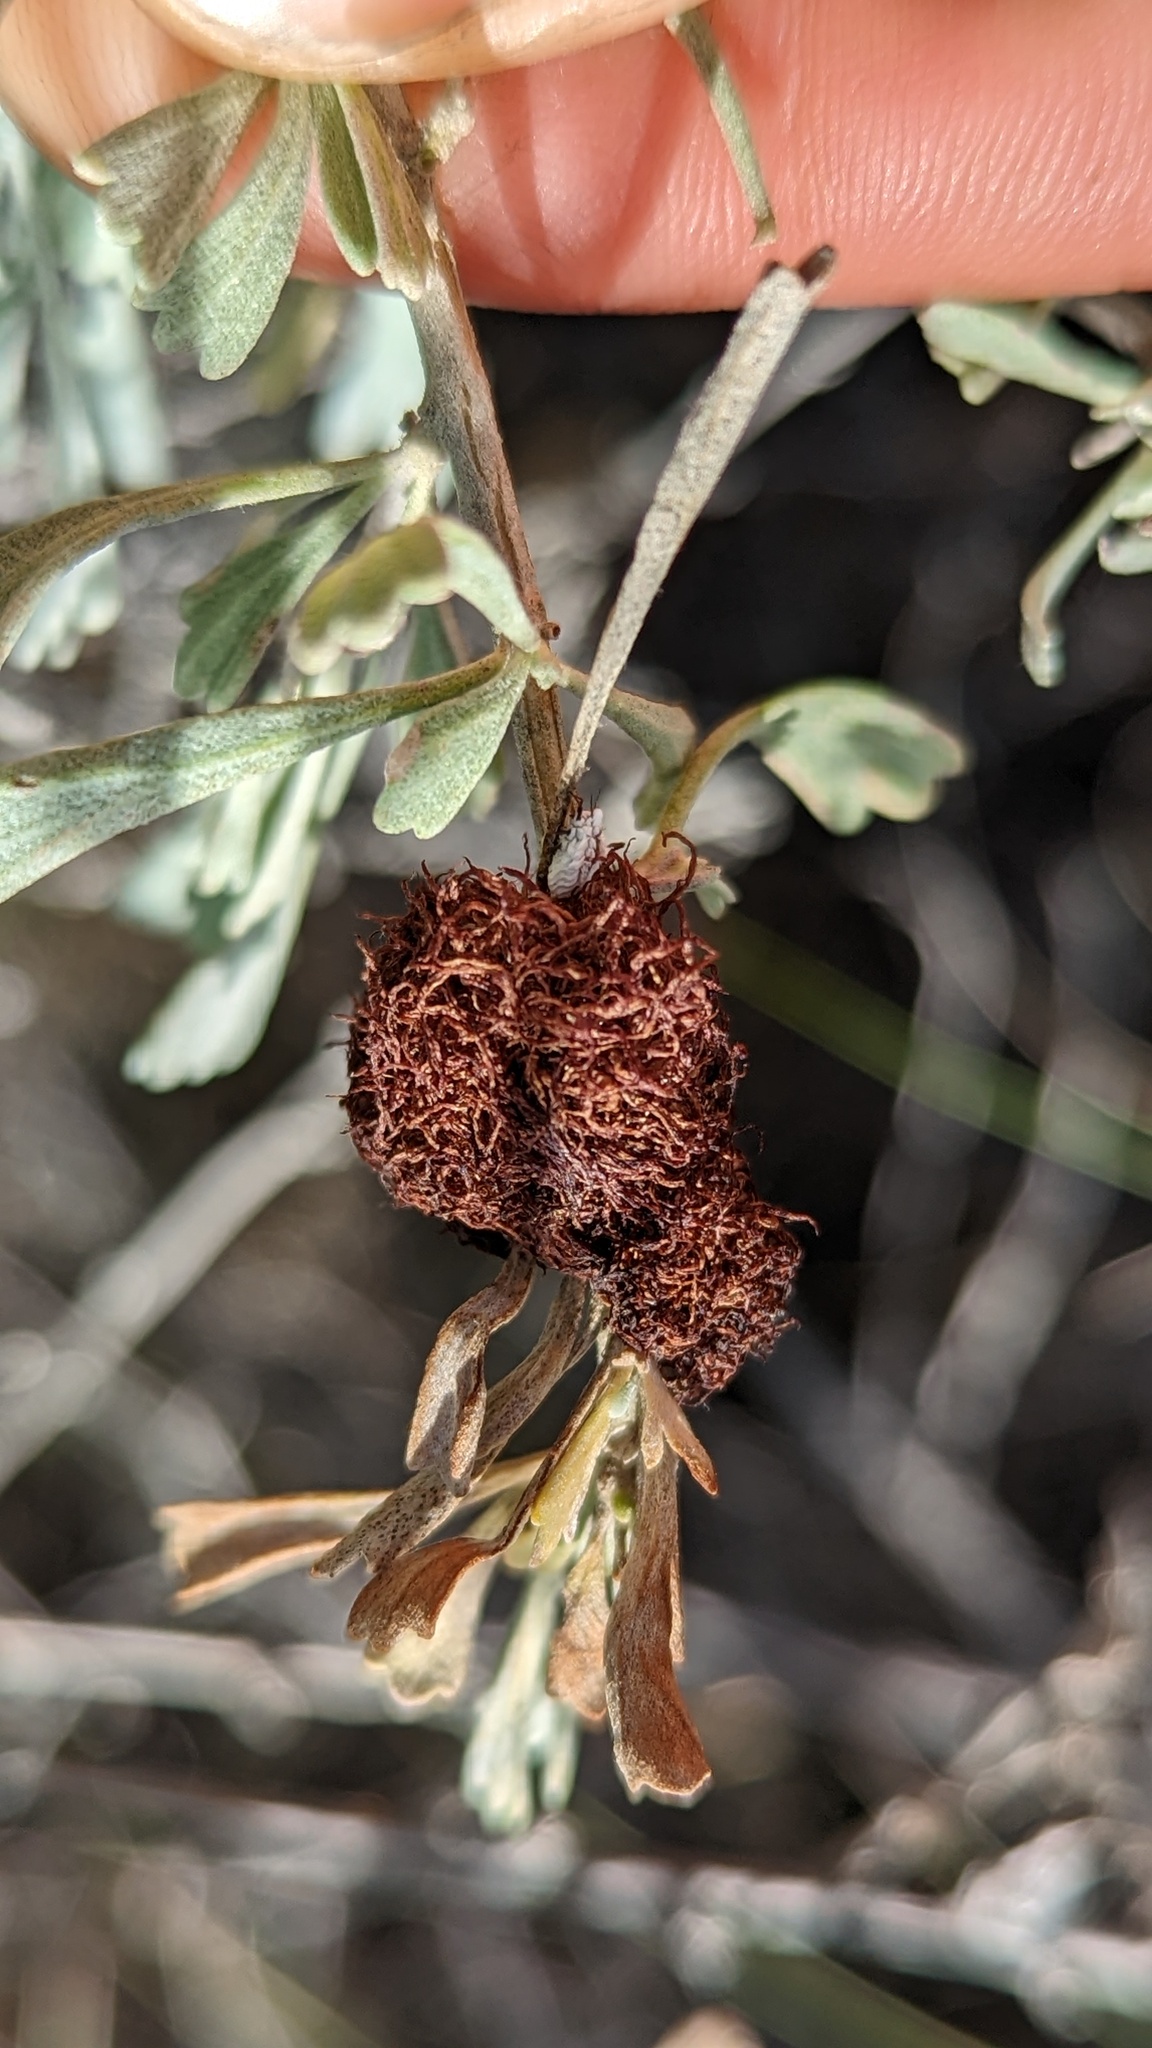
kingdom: Animalia
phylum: Arthropoda
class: Insecta
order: Diptera
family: Cecidomyiidae
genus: Rhopalomyia
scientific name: Rhopalomyia medusa
